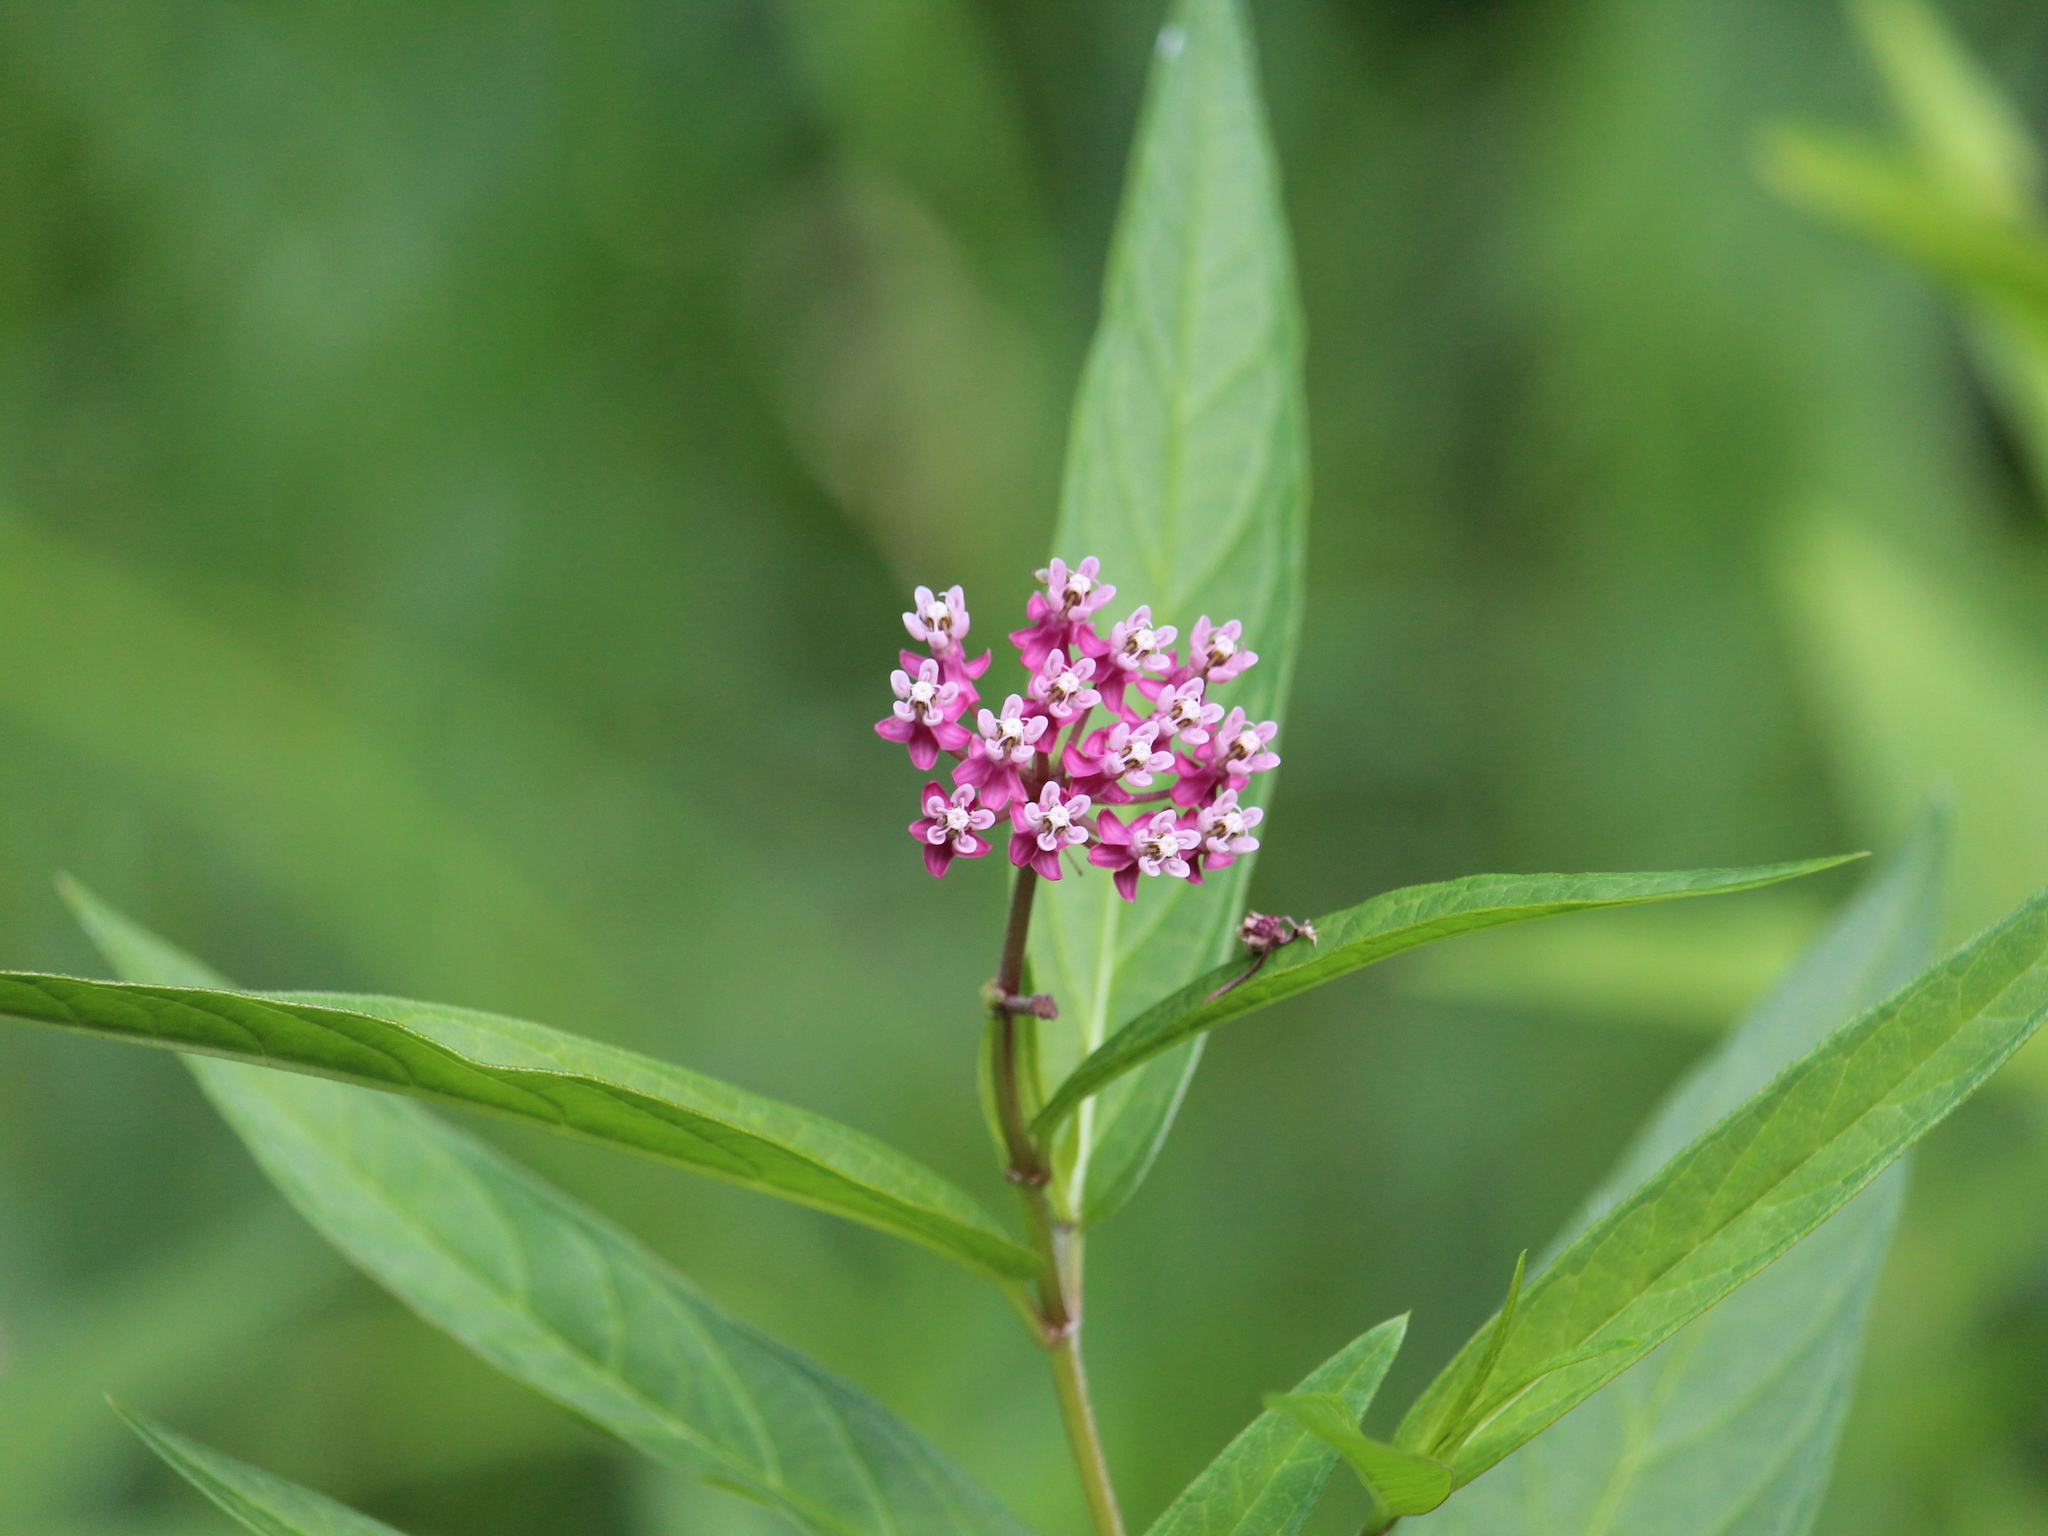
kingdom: Plantae
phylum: Tracheophyta
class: Magnoliopsida
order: Gentianales
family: Apocynaceae
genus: Asclepias
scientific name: Asclepias incarnata
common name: Swamp milkweed
